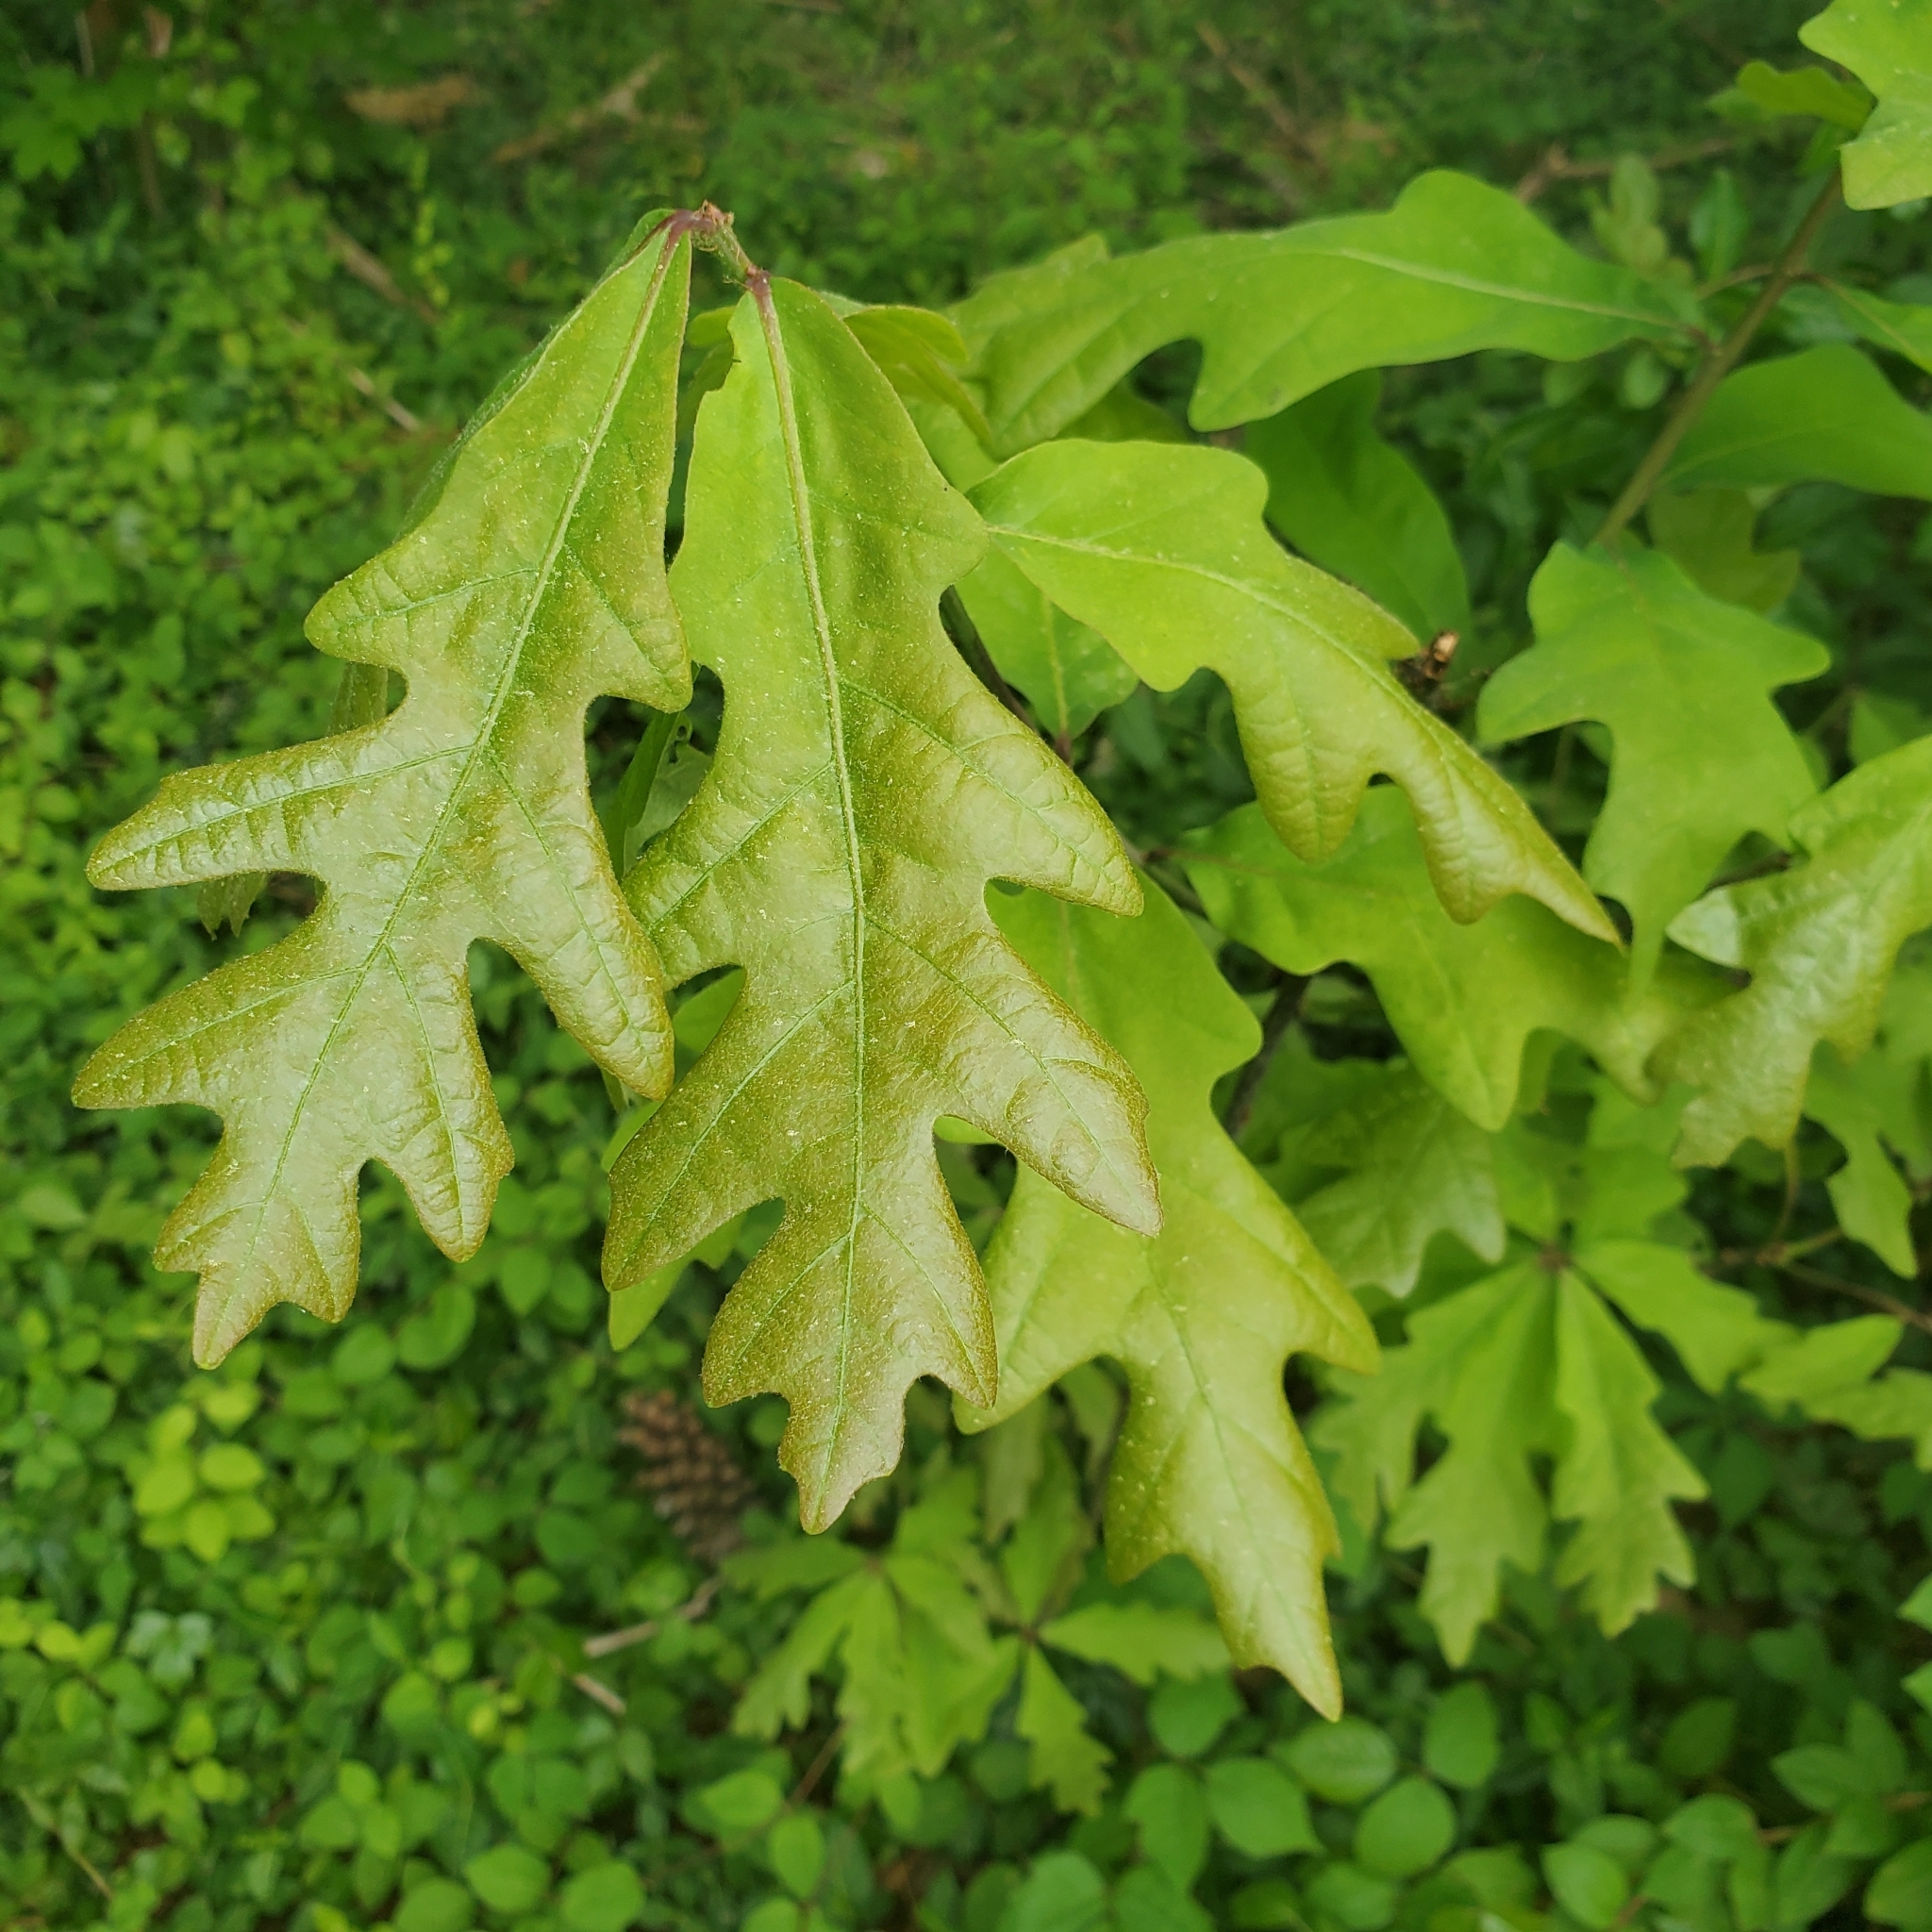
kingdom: Plantae
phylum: Tracheophyta
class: Magnoliopsida
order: Fagales
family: Fagaceae
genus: Quercus
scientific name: Quercus alba
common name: White oak
